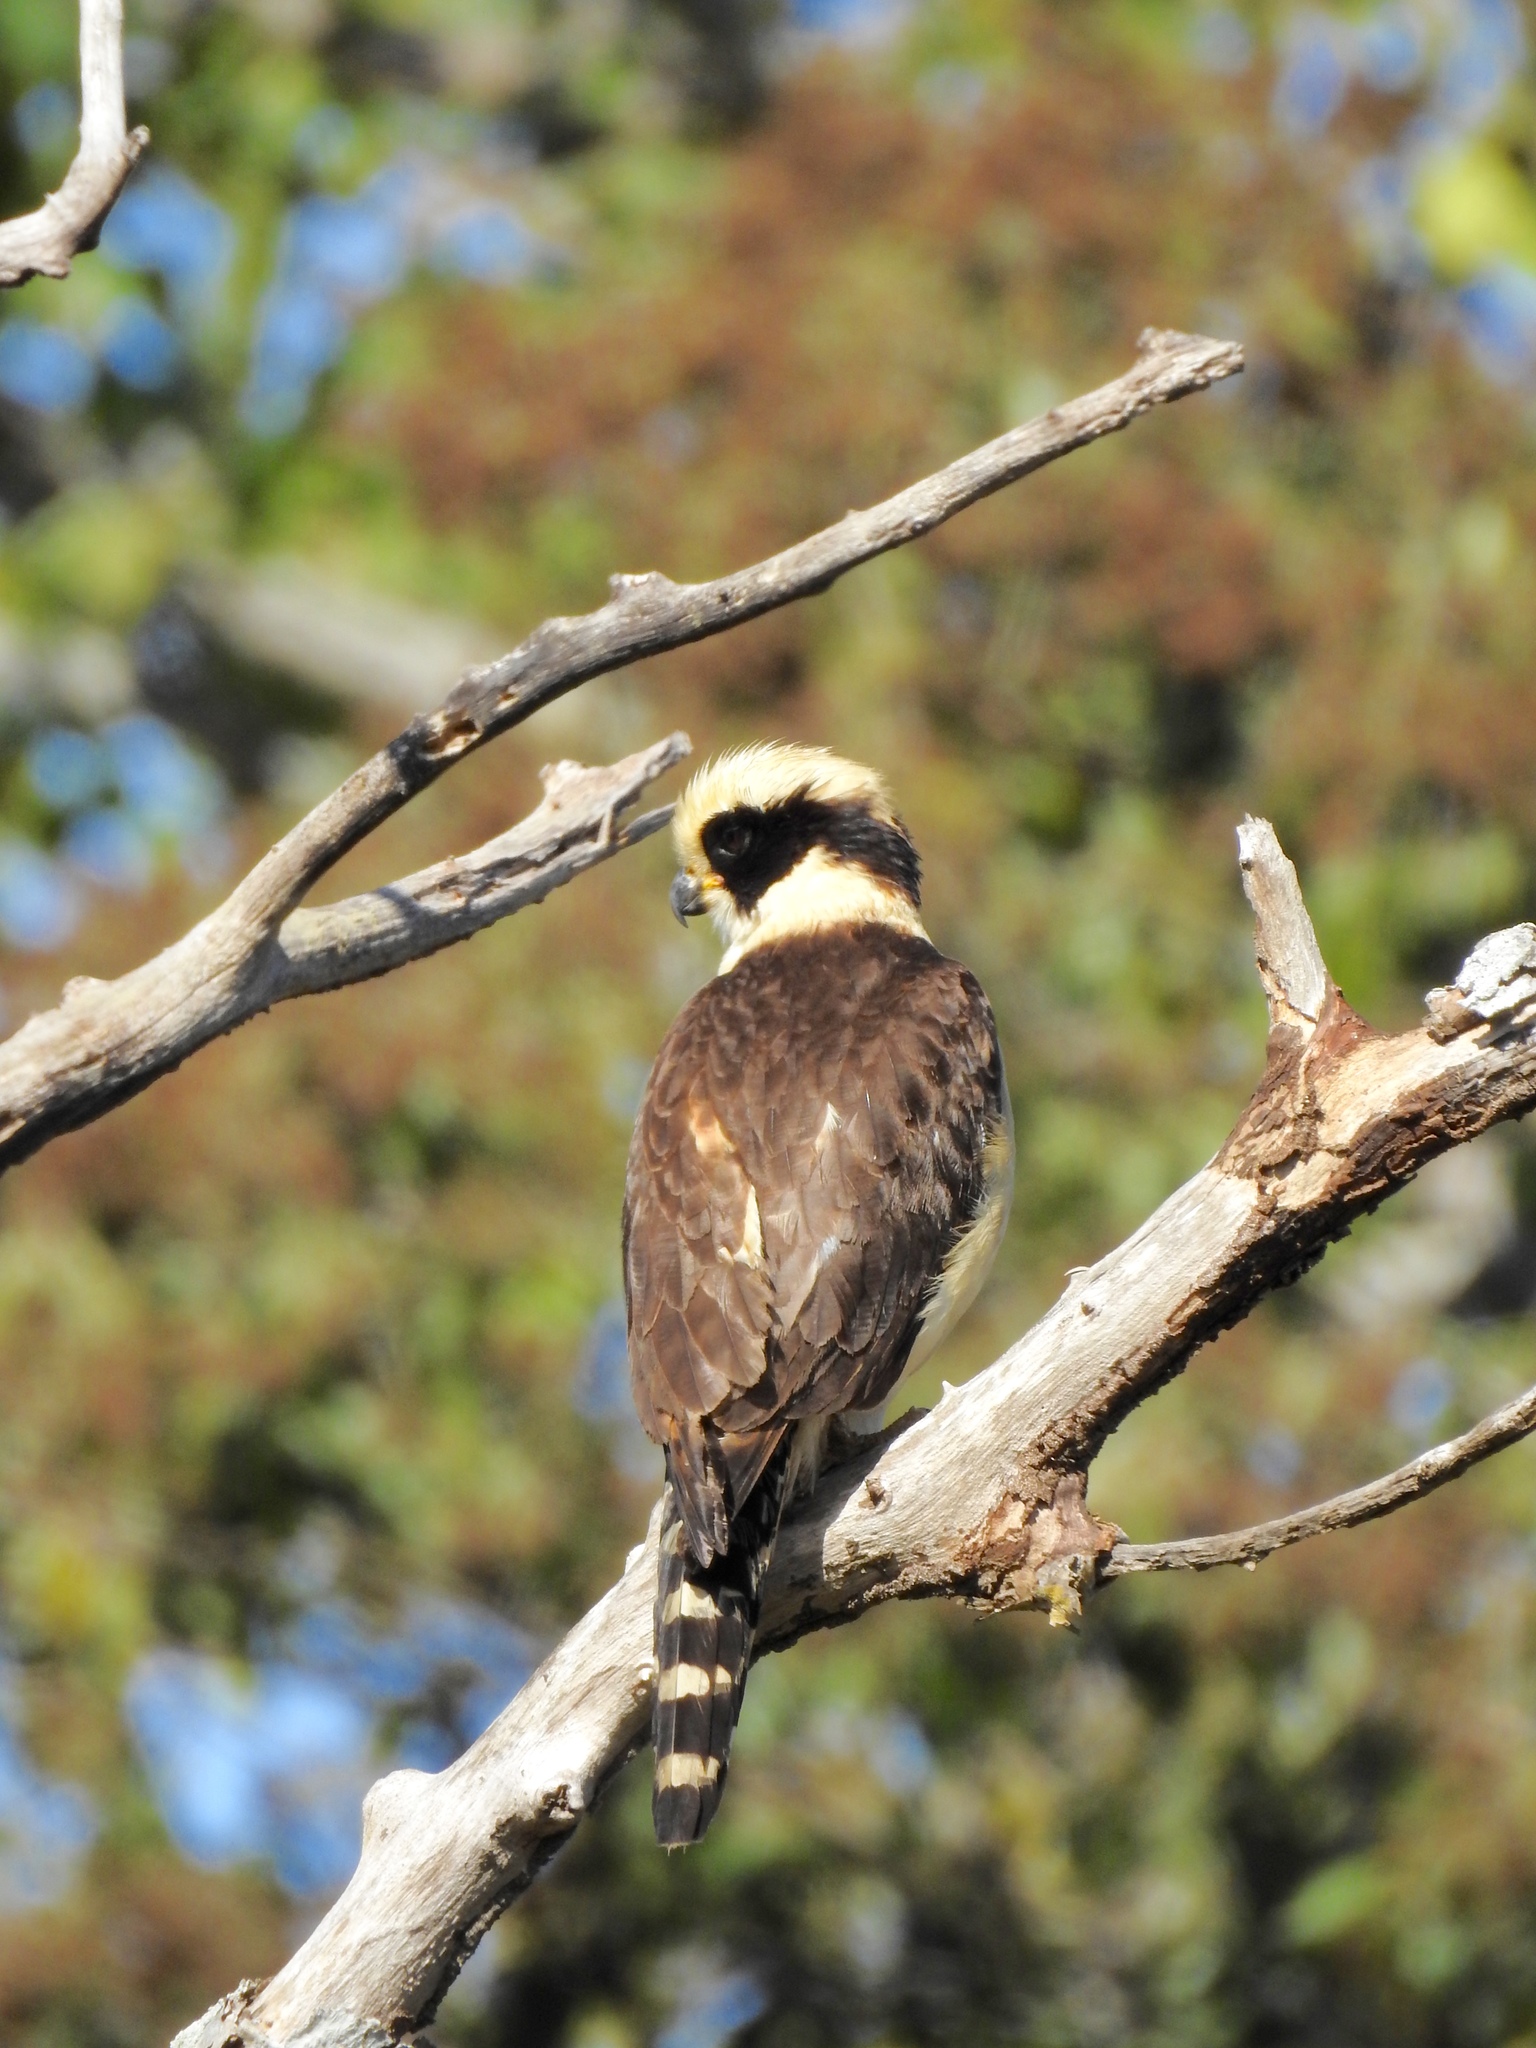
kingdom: Animalia
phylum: Chordata
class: Aves
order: Falconiformes
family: Falconidae
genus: Herpetotheres
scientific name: Herpetotheres cachinnans
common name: Laughing falcon
